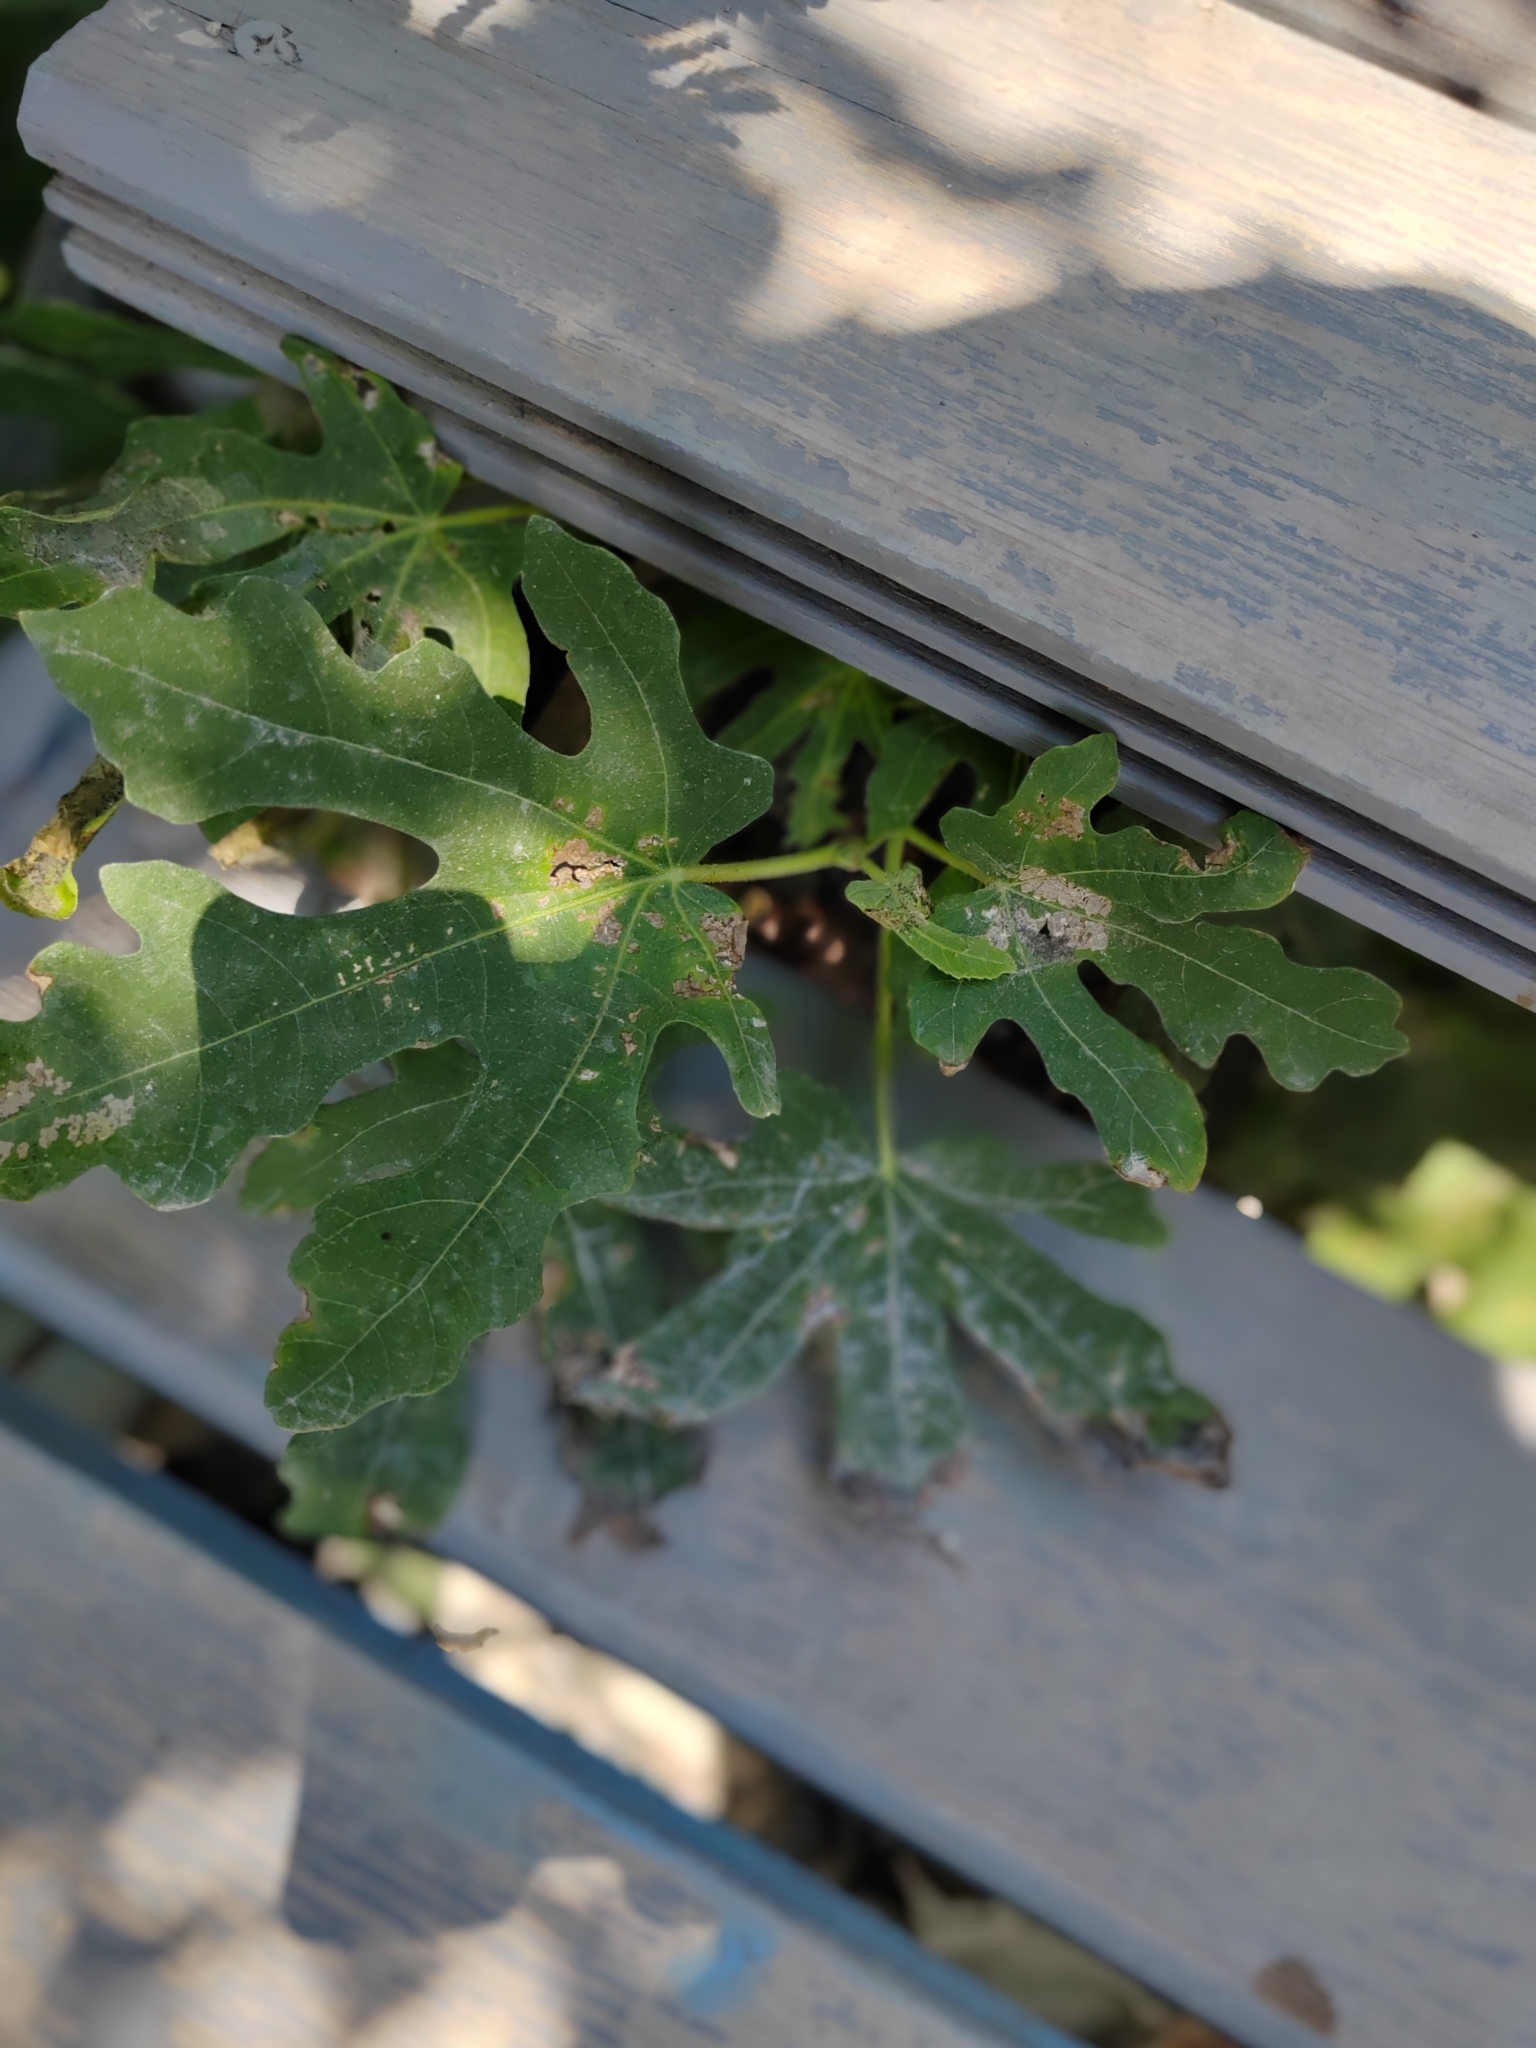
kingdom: Plantae
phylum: Tracheophyta
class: Magnoliopsida
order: Rosales
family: Moraceae
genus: Ficus
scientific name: Ficus carica
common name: Fig
